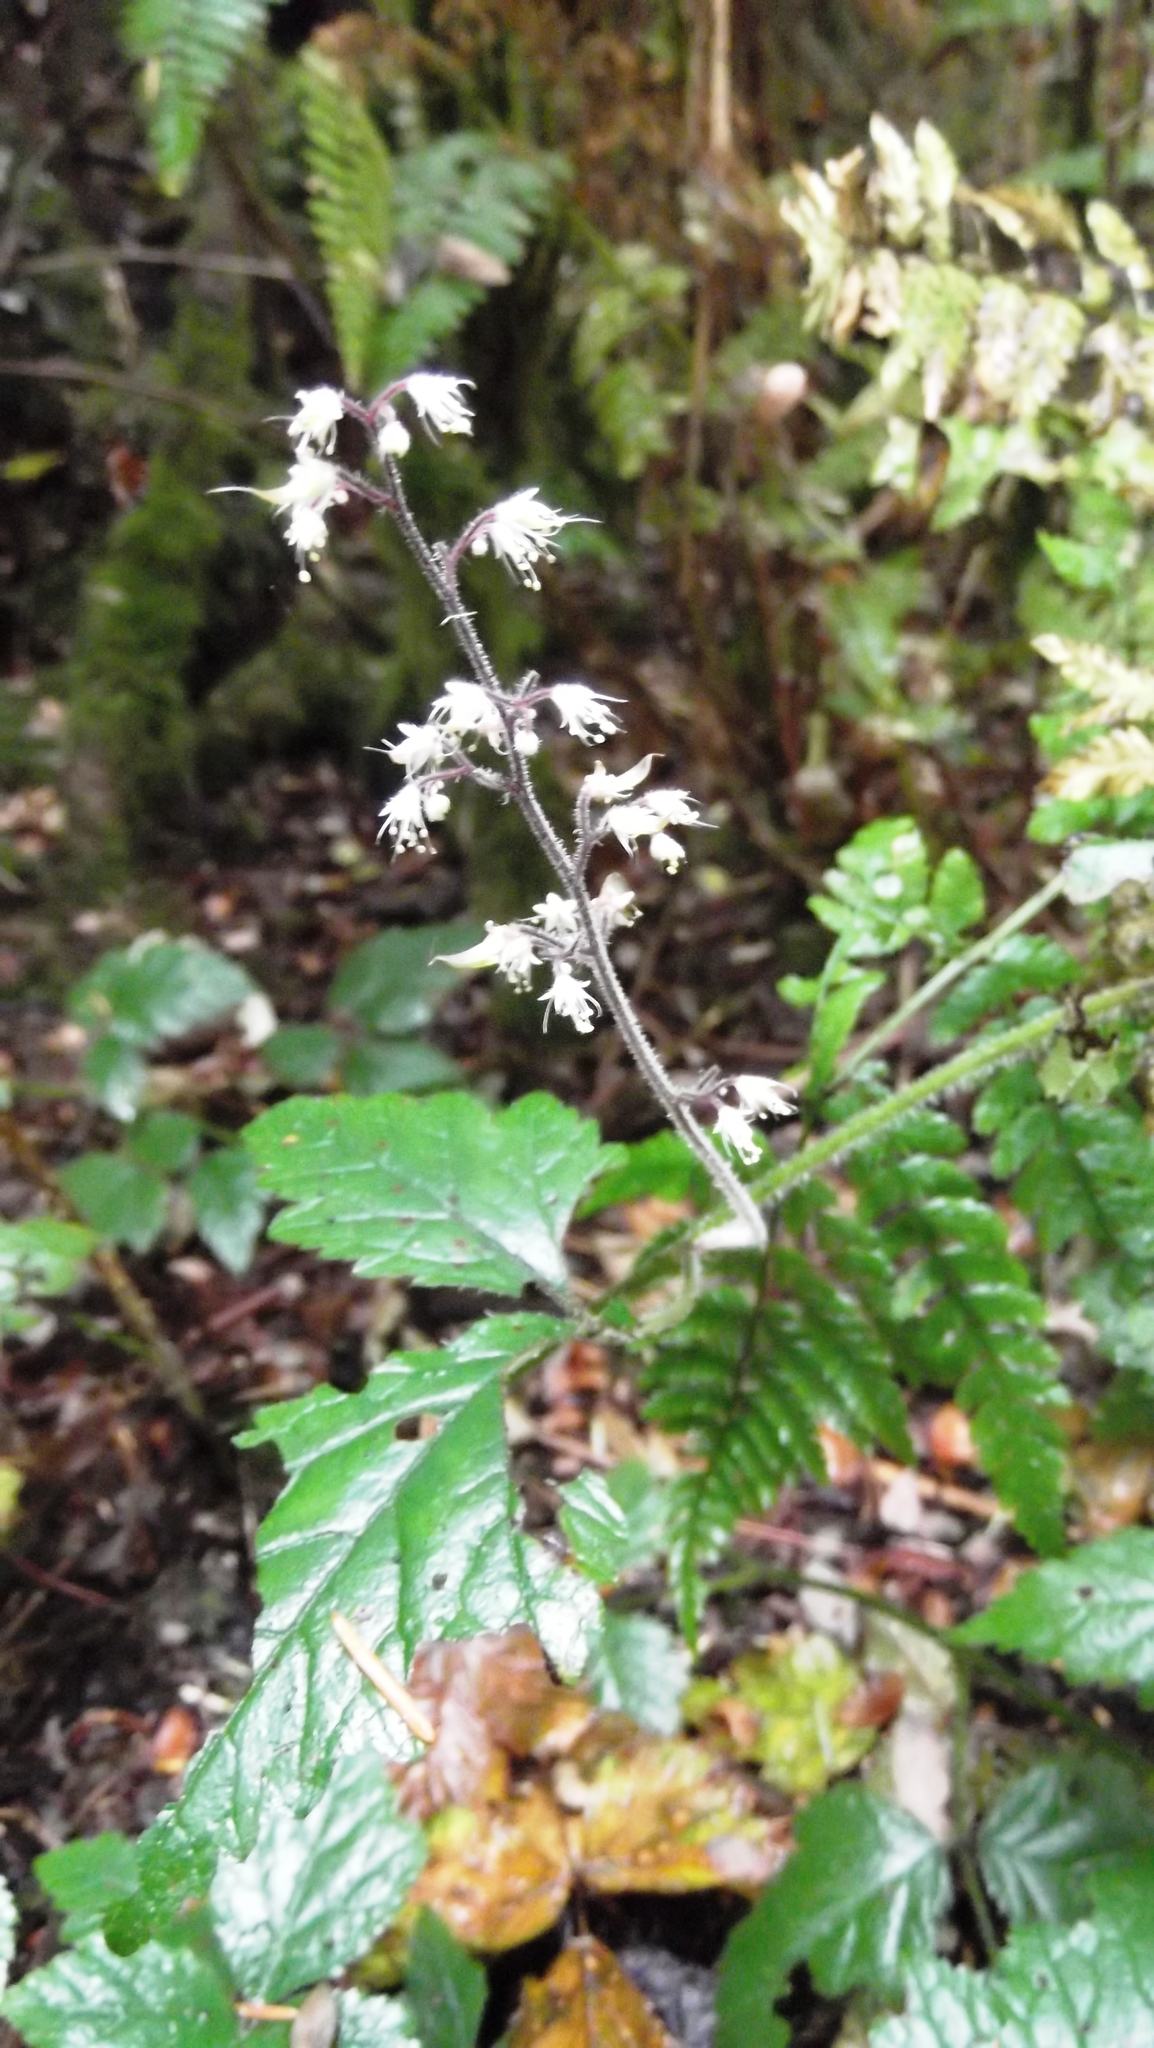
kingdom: Plantae
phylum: Tracheophyta
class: Magnoliopsida
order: Saxifragales
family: Saxifragaceae
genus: Tiarella
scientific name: Tiarella trifoliata
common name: Sugar-scoop
